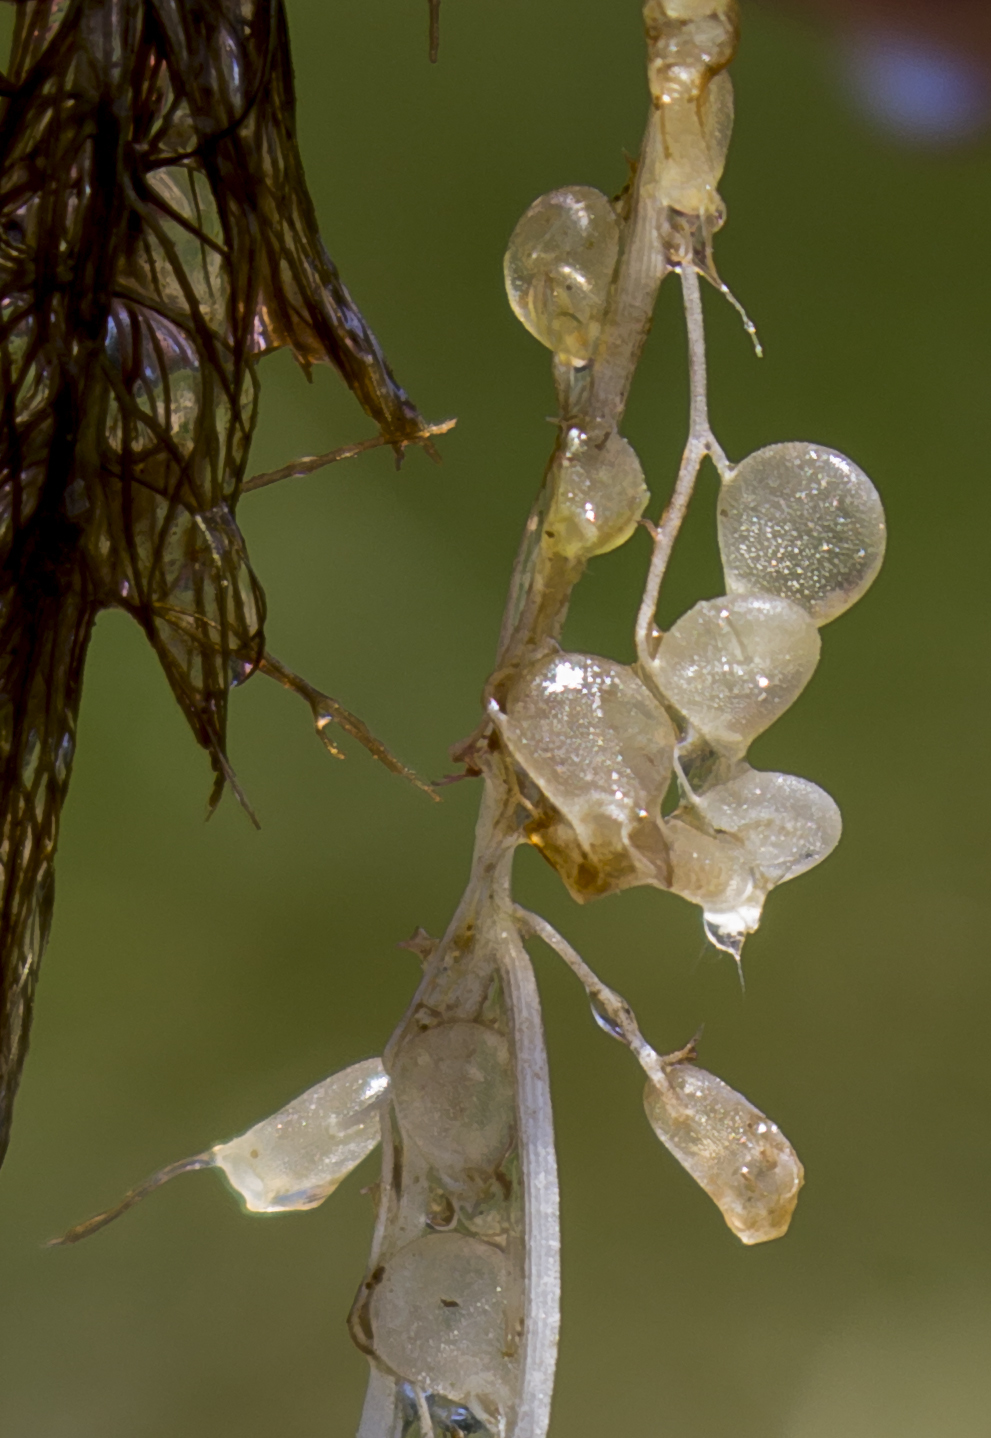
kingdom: Plantae
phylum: Tracheophyta
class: Magnoliopsida
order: Lamiales
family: Lentibulariaceae
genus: Utricularia
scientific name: Utricularia intermedia
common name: Intermediate bladderwort
